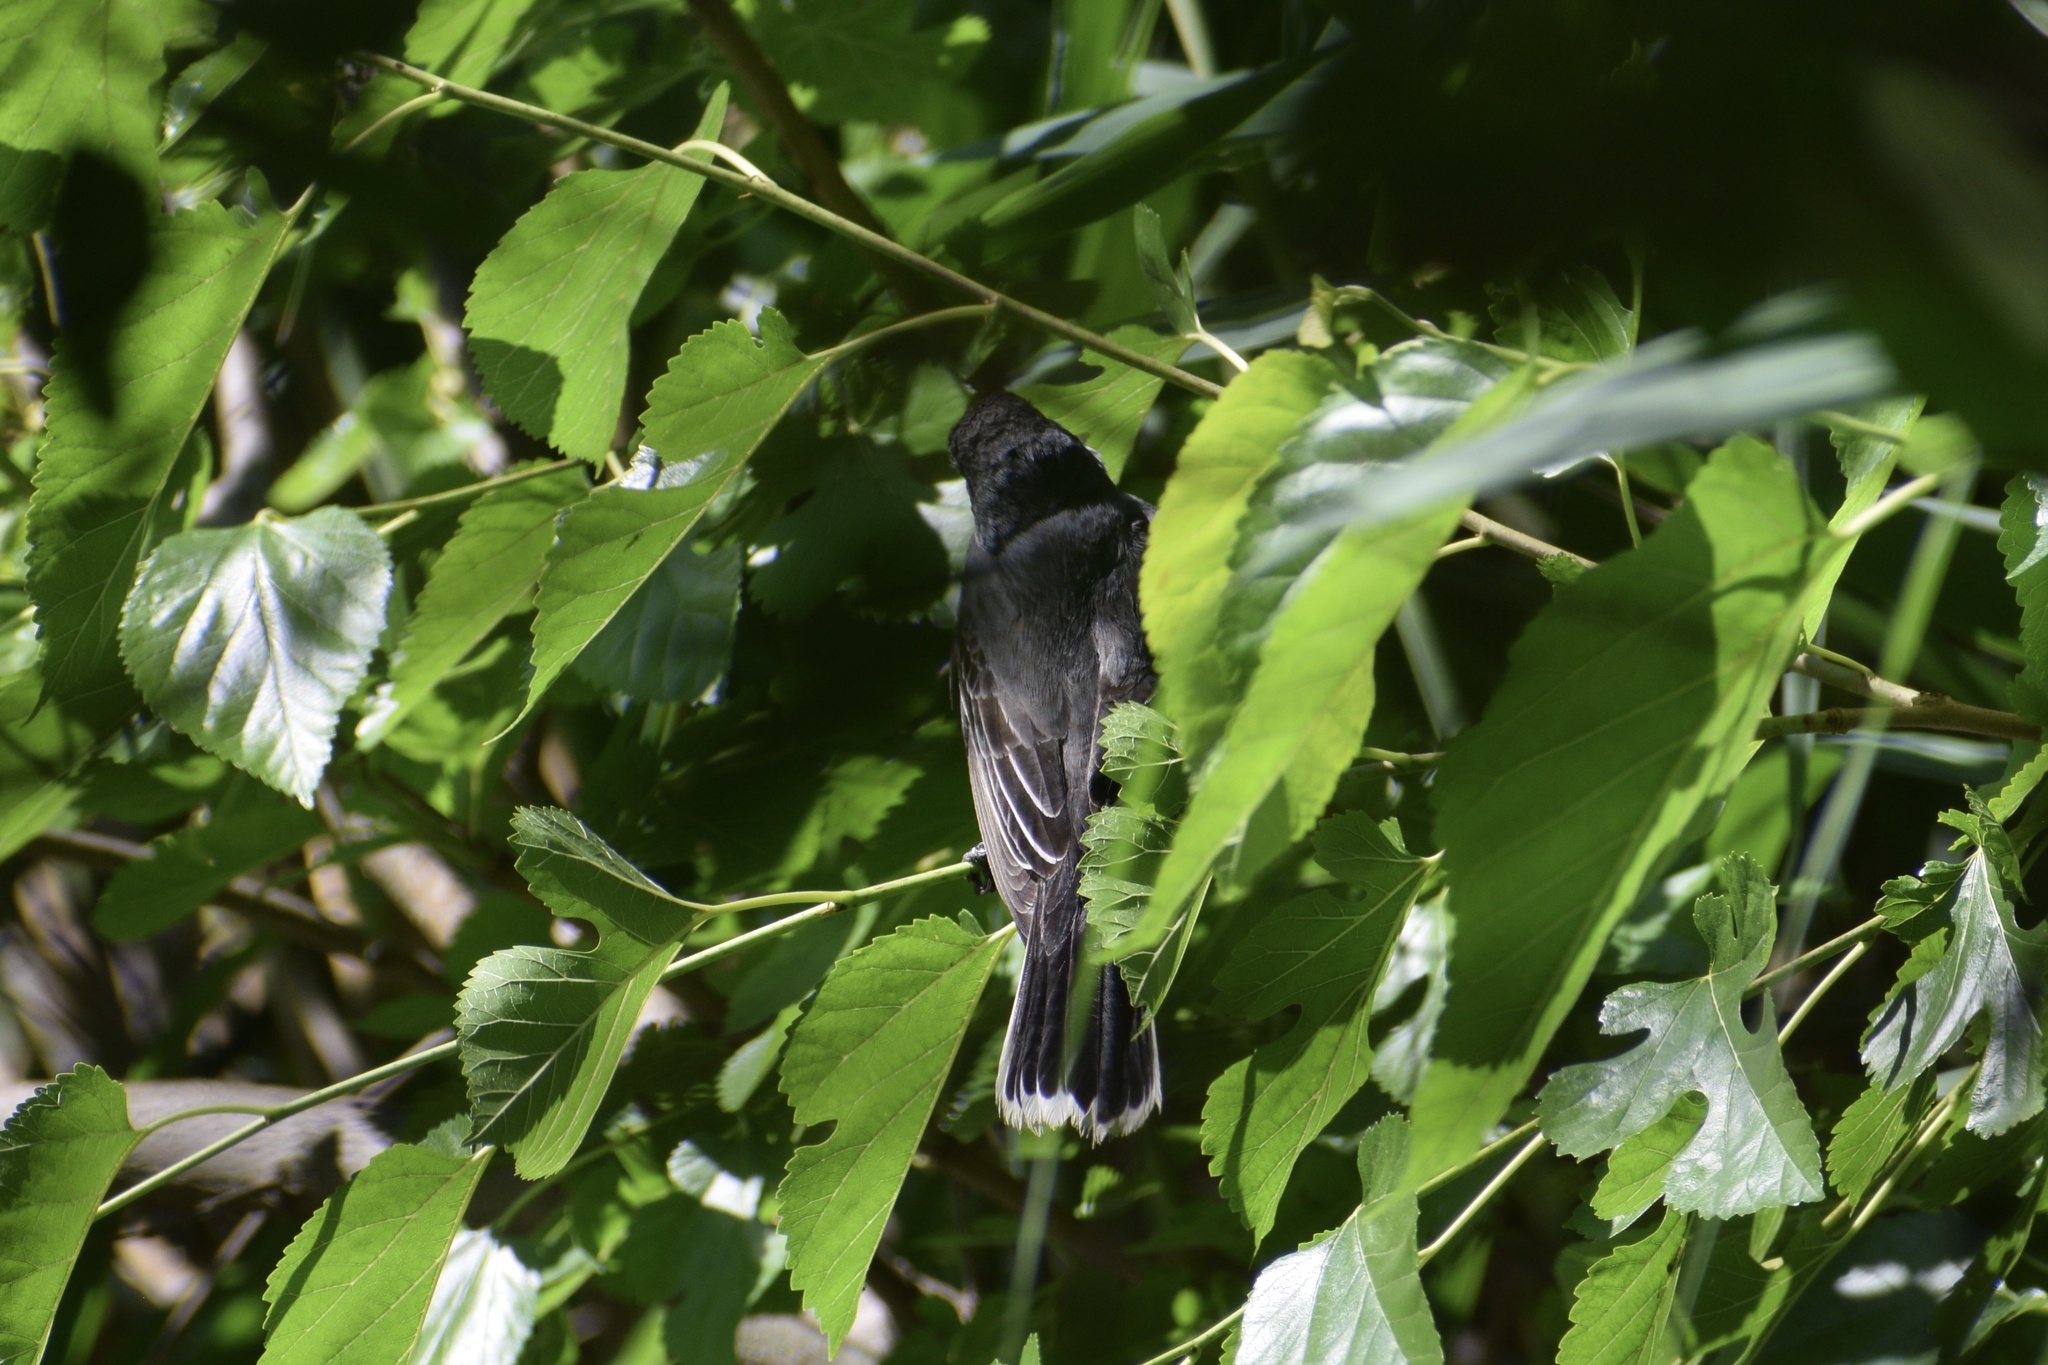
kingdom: Animalia
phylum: Chordata
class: Aves
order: Passeriformes
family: Tyrannidae
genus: Tyrannus
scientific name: Tyrannus tyrannus
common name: Eastern kingbird
